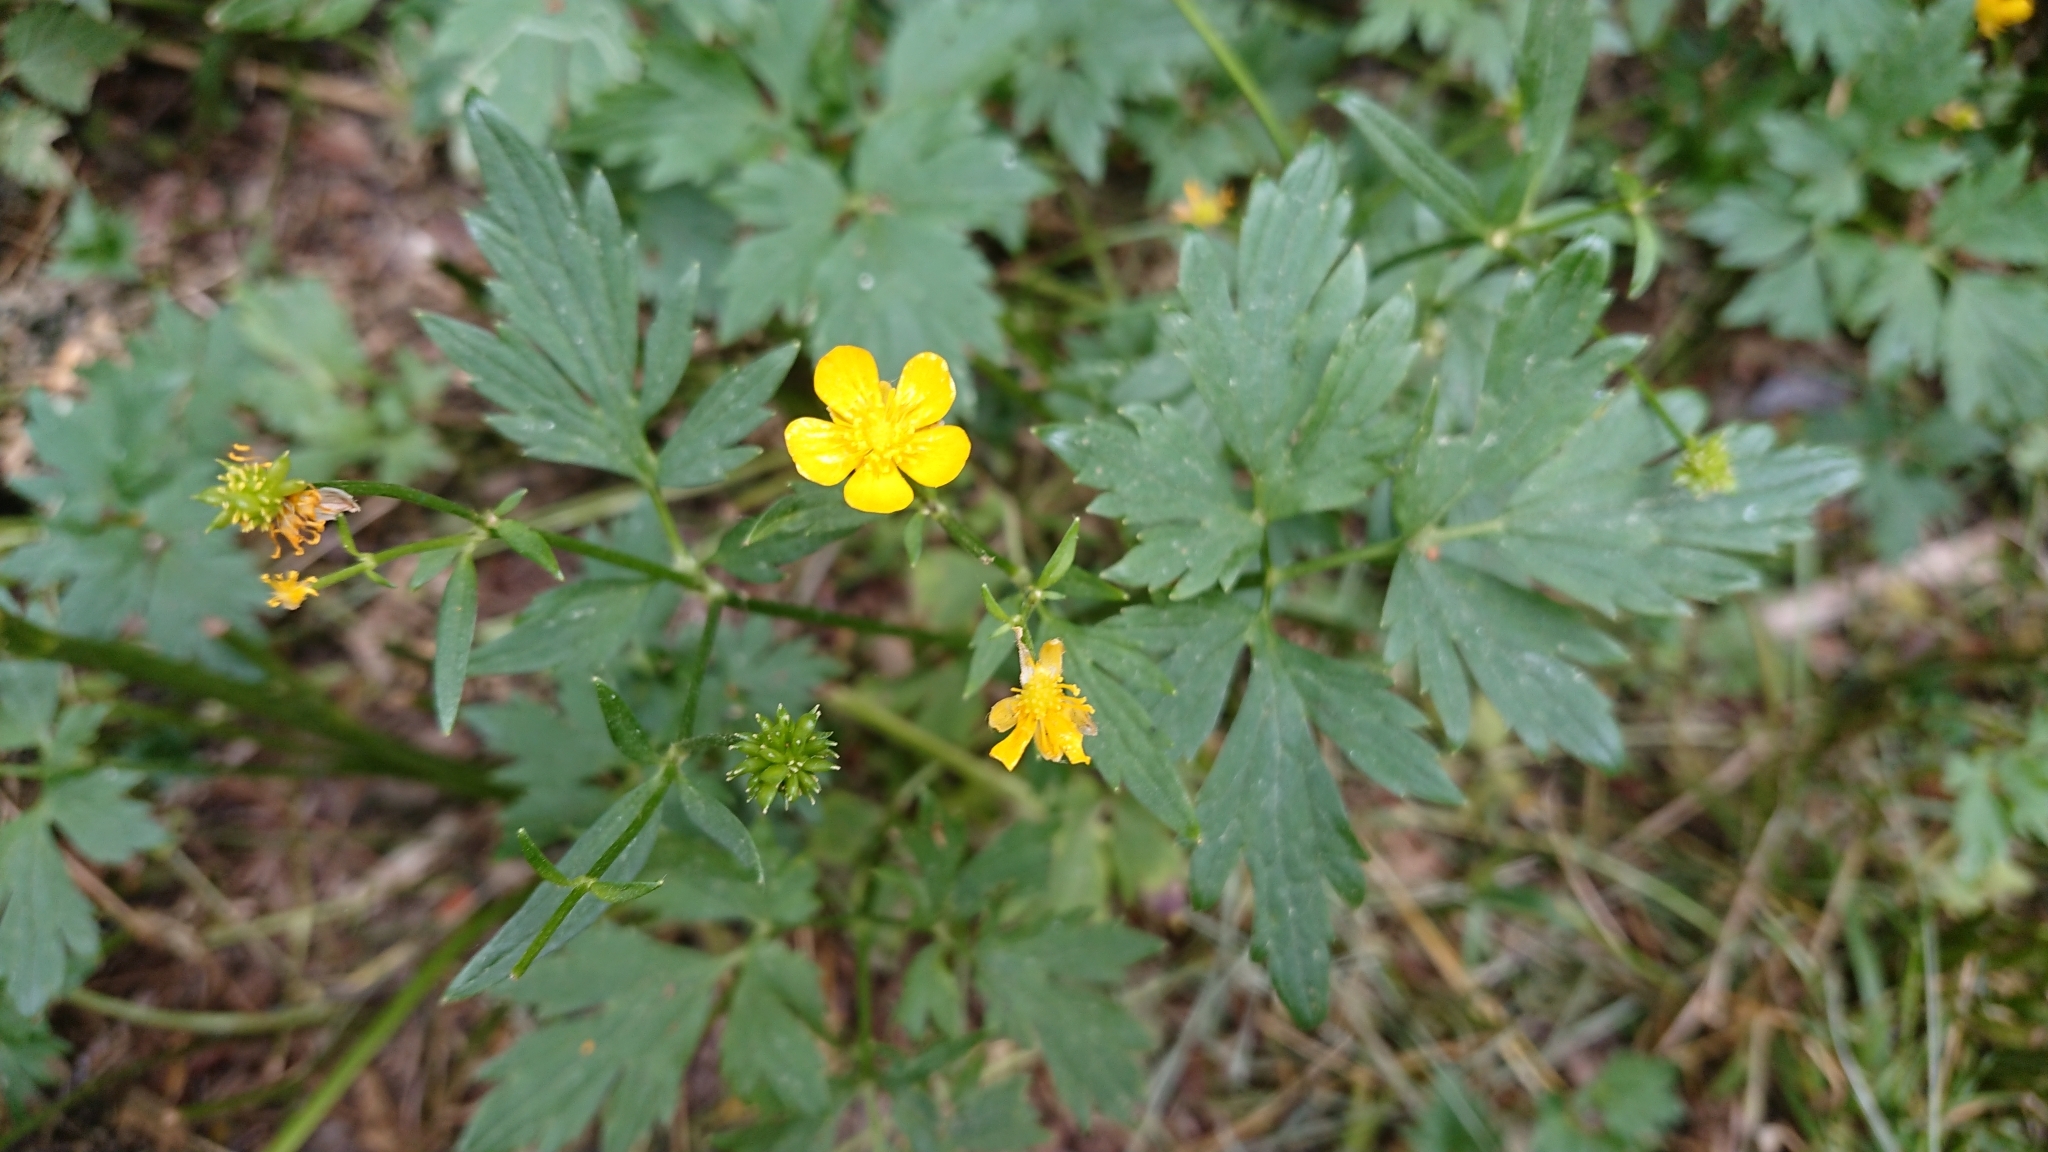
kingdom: Plantae
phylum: Tracheophyta
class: Magnoliopsida
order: Ranunculales
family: Ranunculaceae
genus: Ranunculus
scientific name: Ranunculus repens
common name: Creeping buttercup
